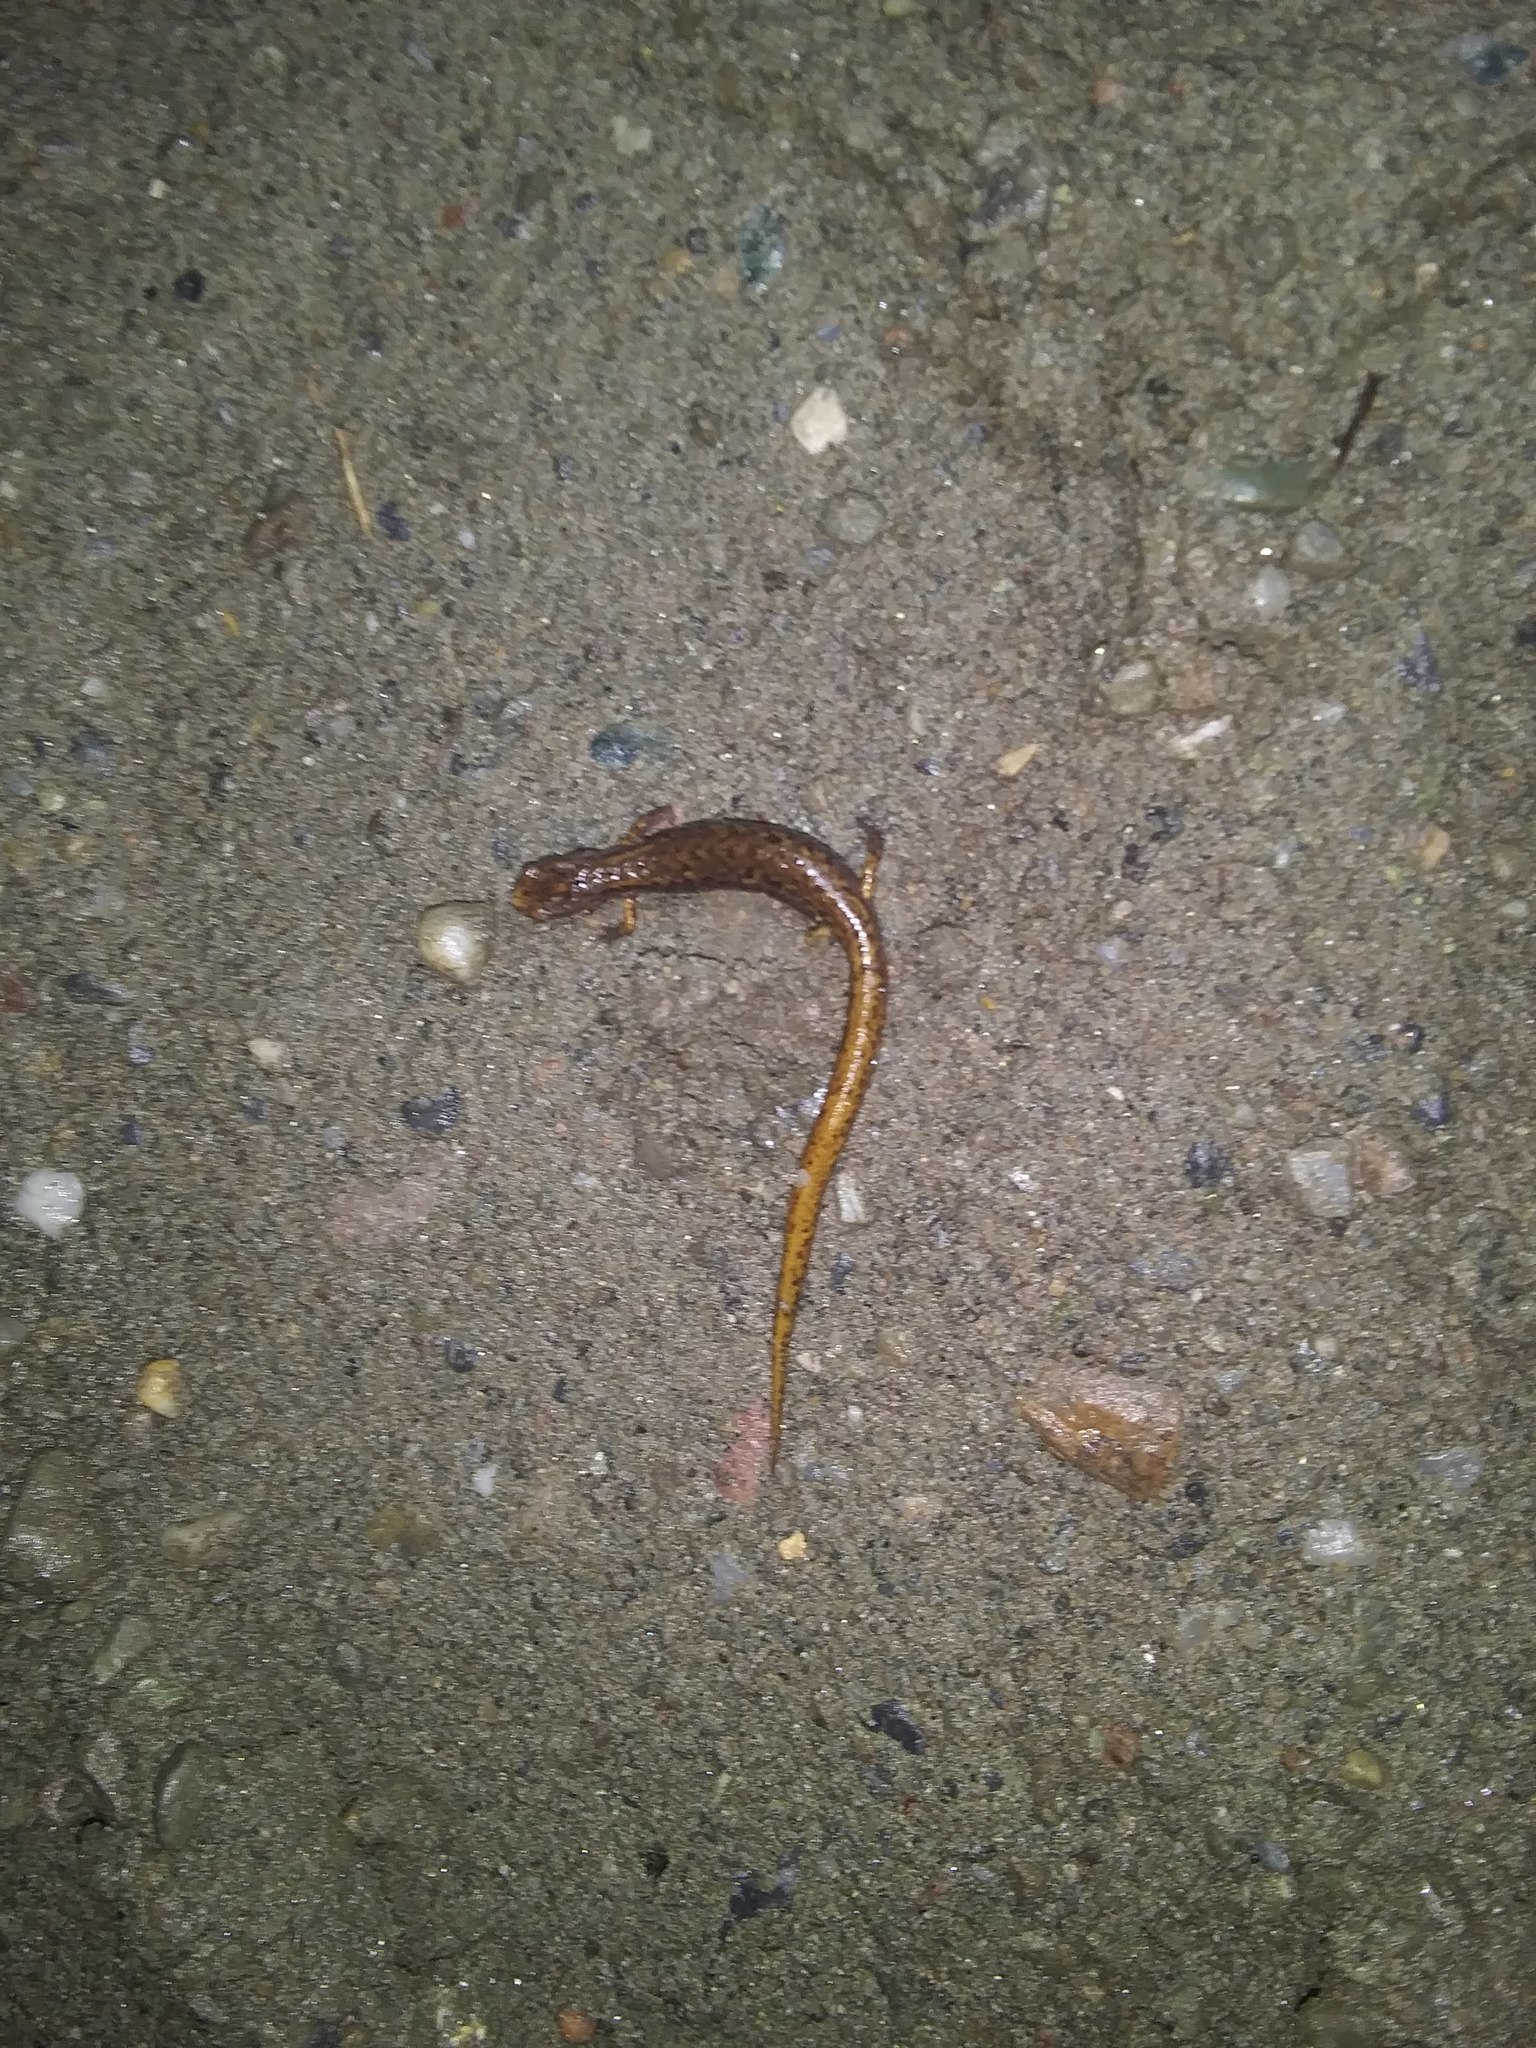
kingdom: Animalia
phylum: Chordata
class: Amphibia
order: Caudata
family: Plethodontidae
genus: Hemidactylium
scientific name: Hemidactylium scutatum
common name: Four-toed salamander
